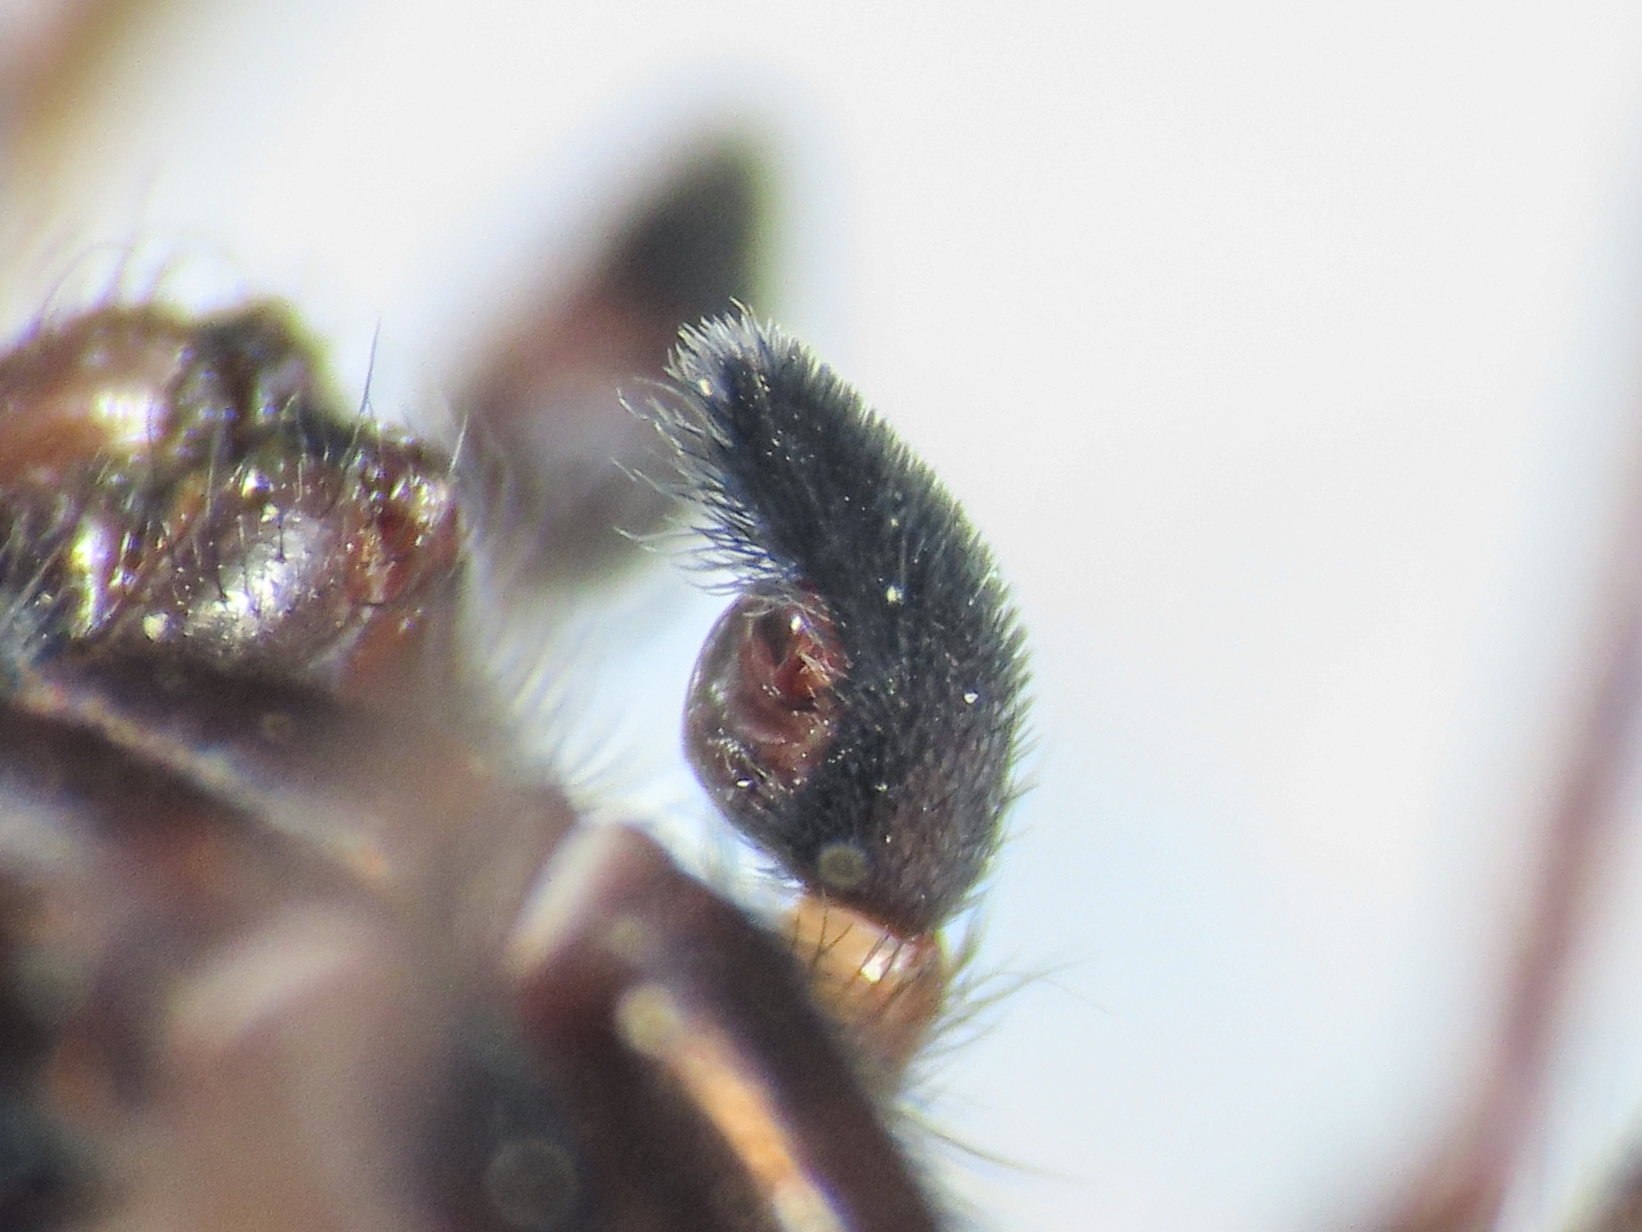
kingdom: Animalia
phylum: Arthropoda
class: Arachnida
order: Araneae
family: Lycosidae
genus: Pardosa
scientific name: Pardosa aenigmatica
